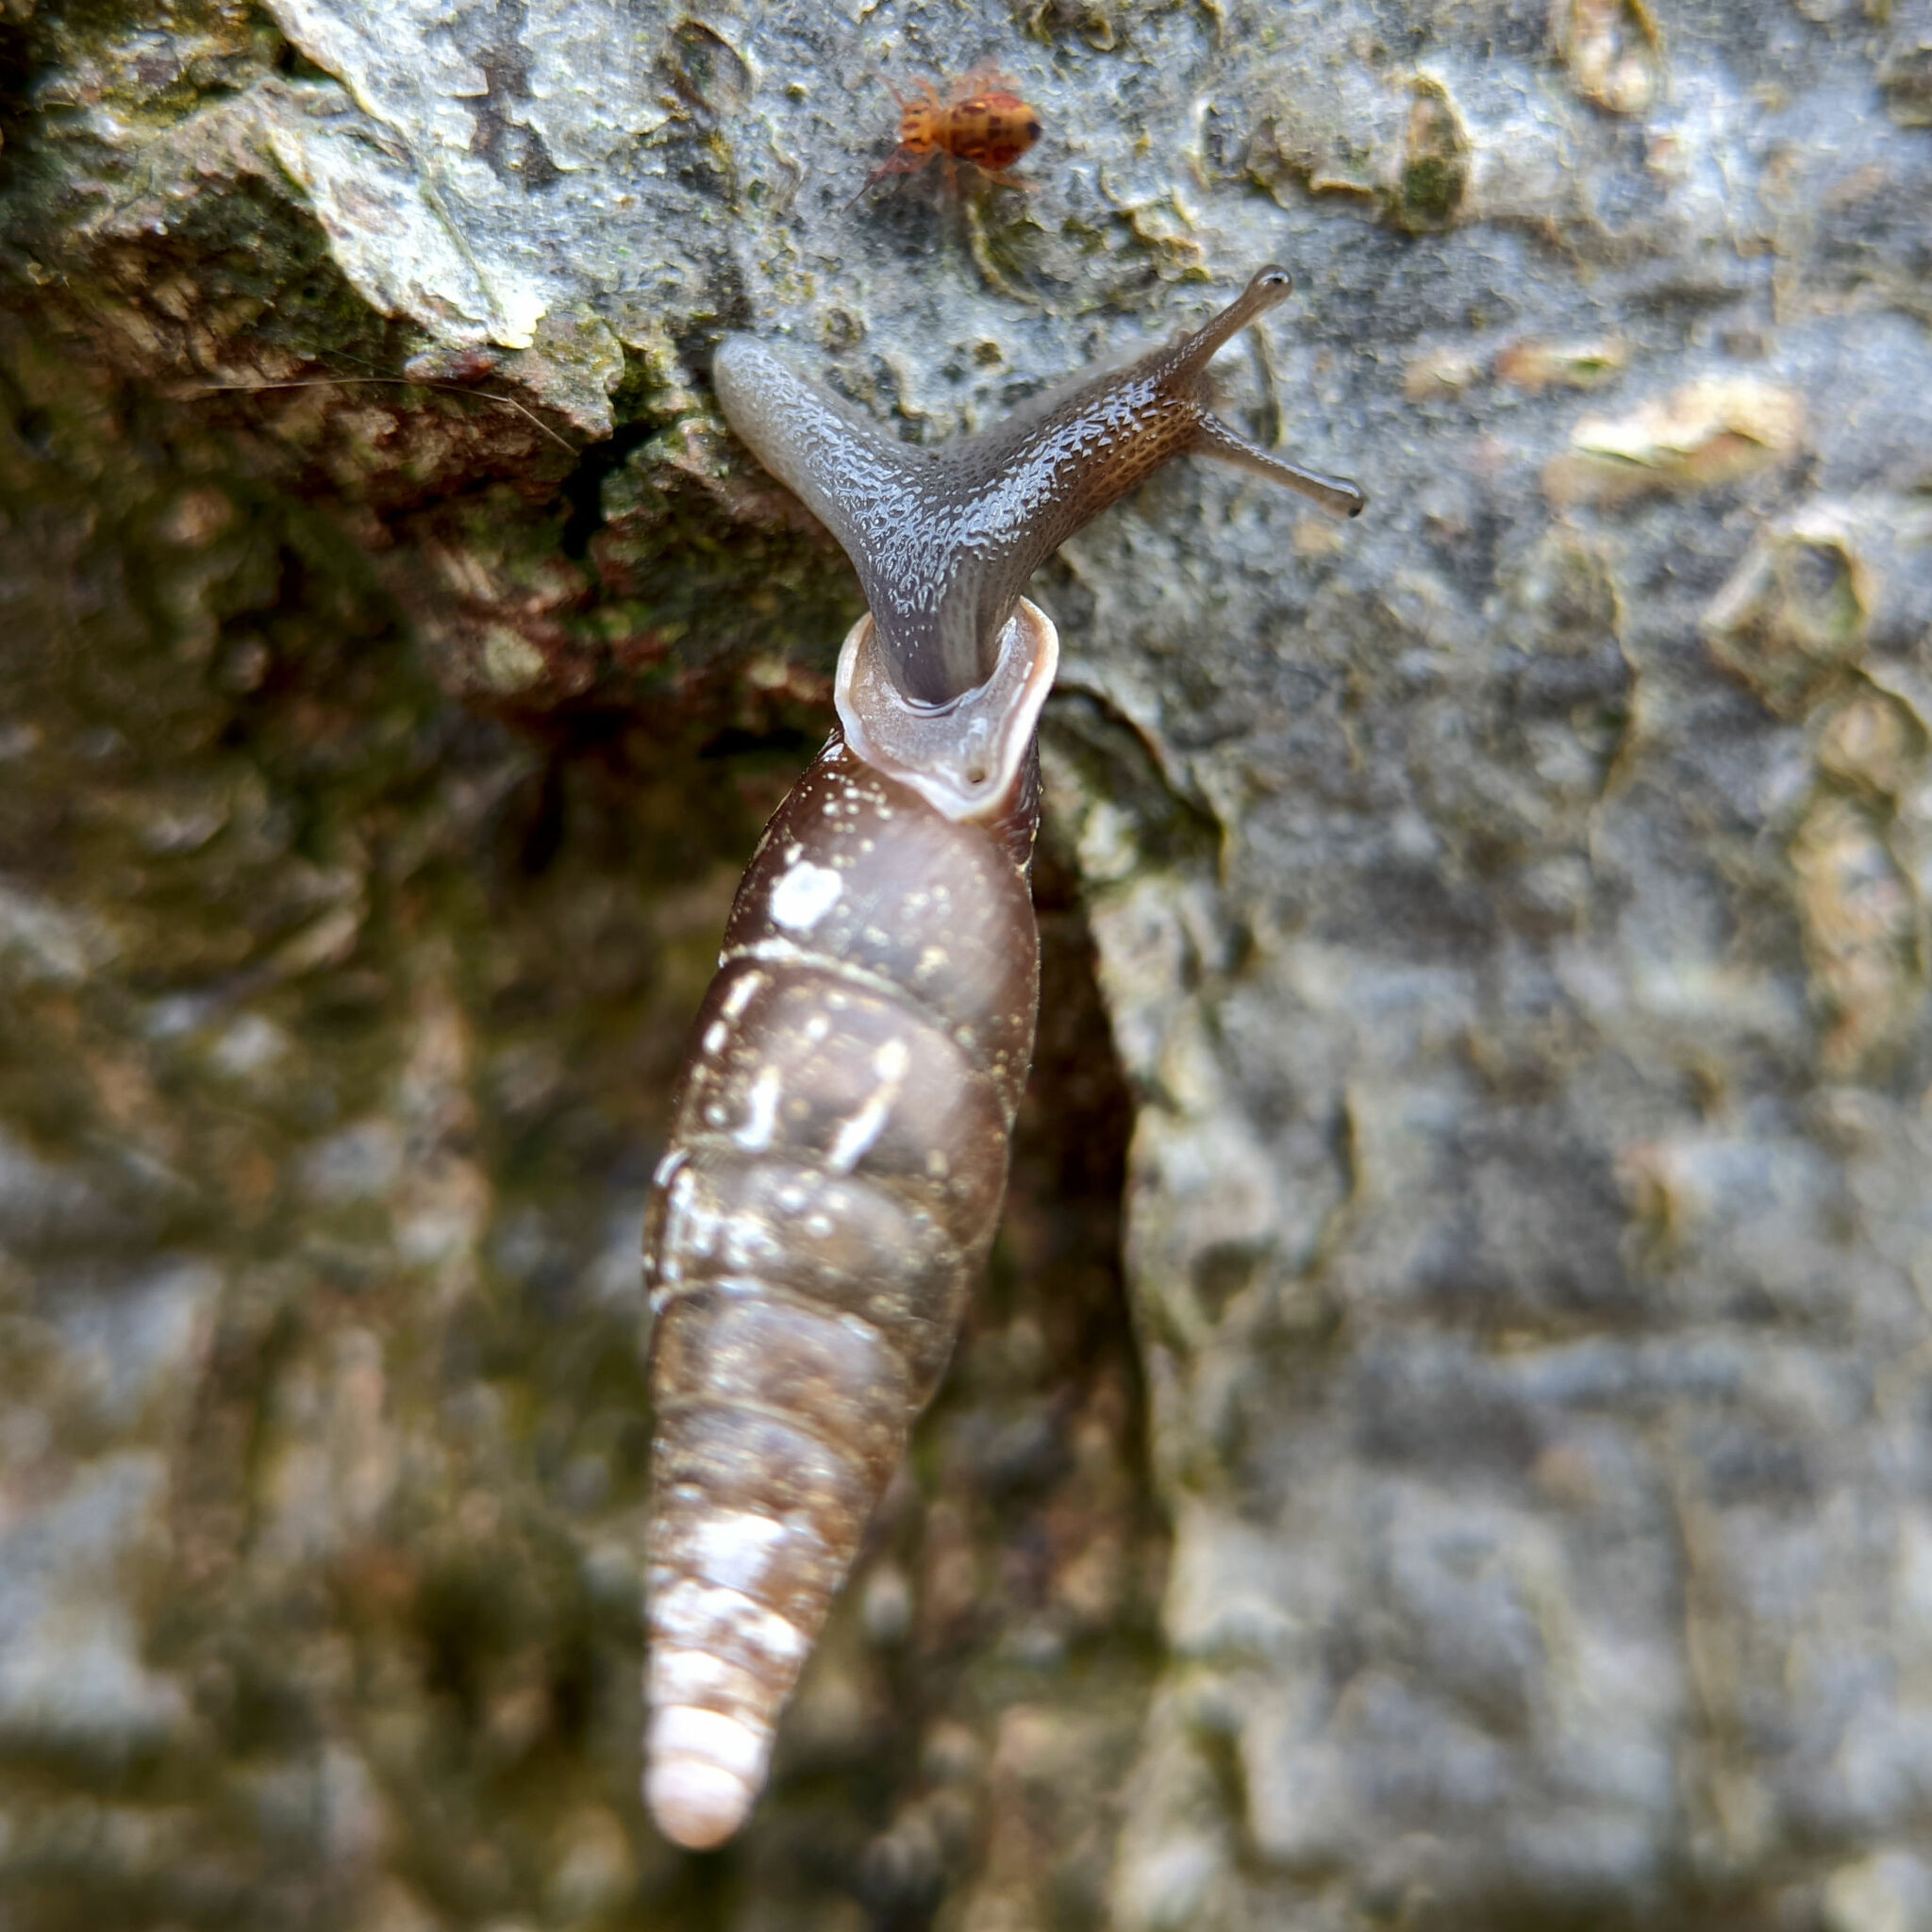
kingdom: Animalia
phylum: Mollusca
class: Gastropoda
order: Stylommatophora
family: Clausiliidae
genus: Cochlodina
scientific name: Cochlodina laminata
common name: Plaited door snail
